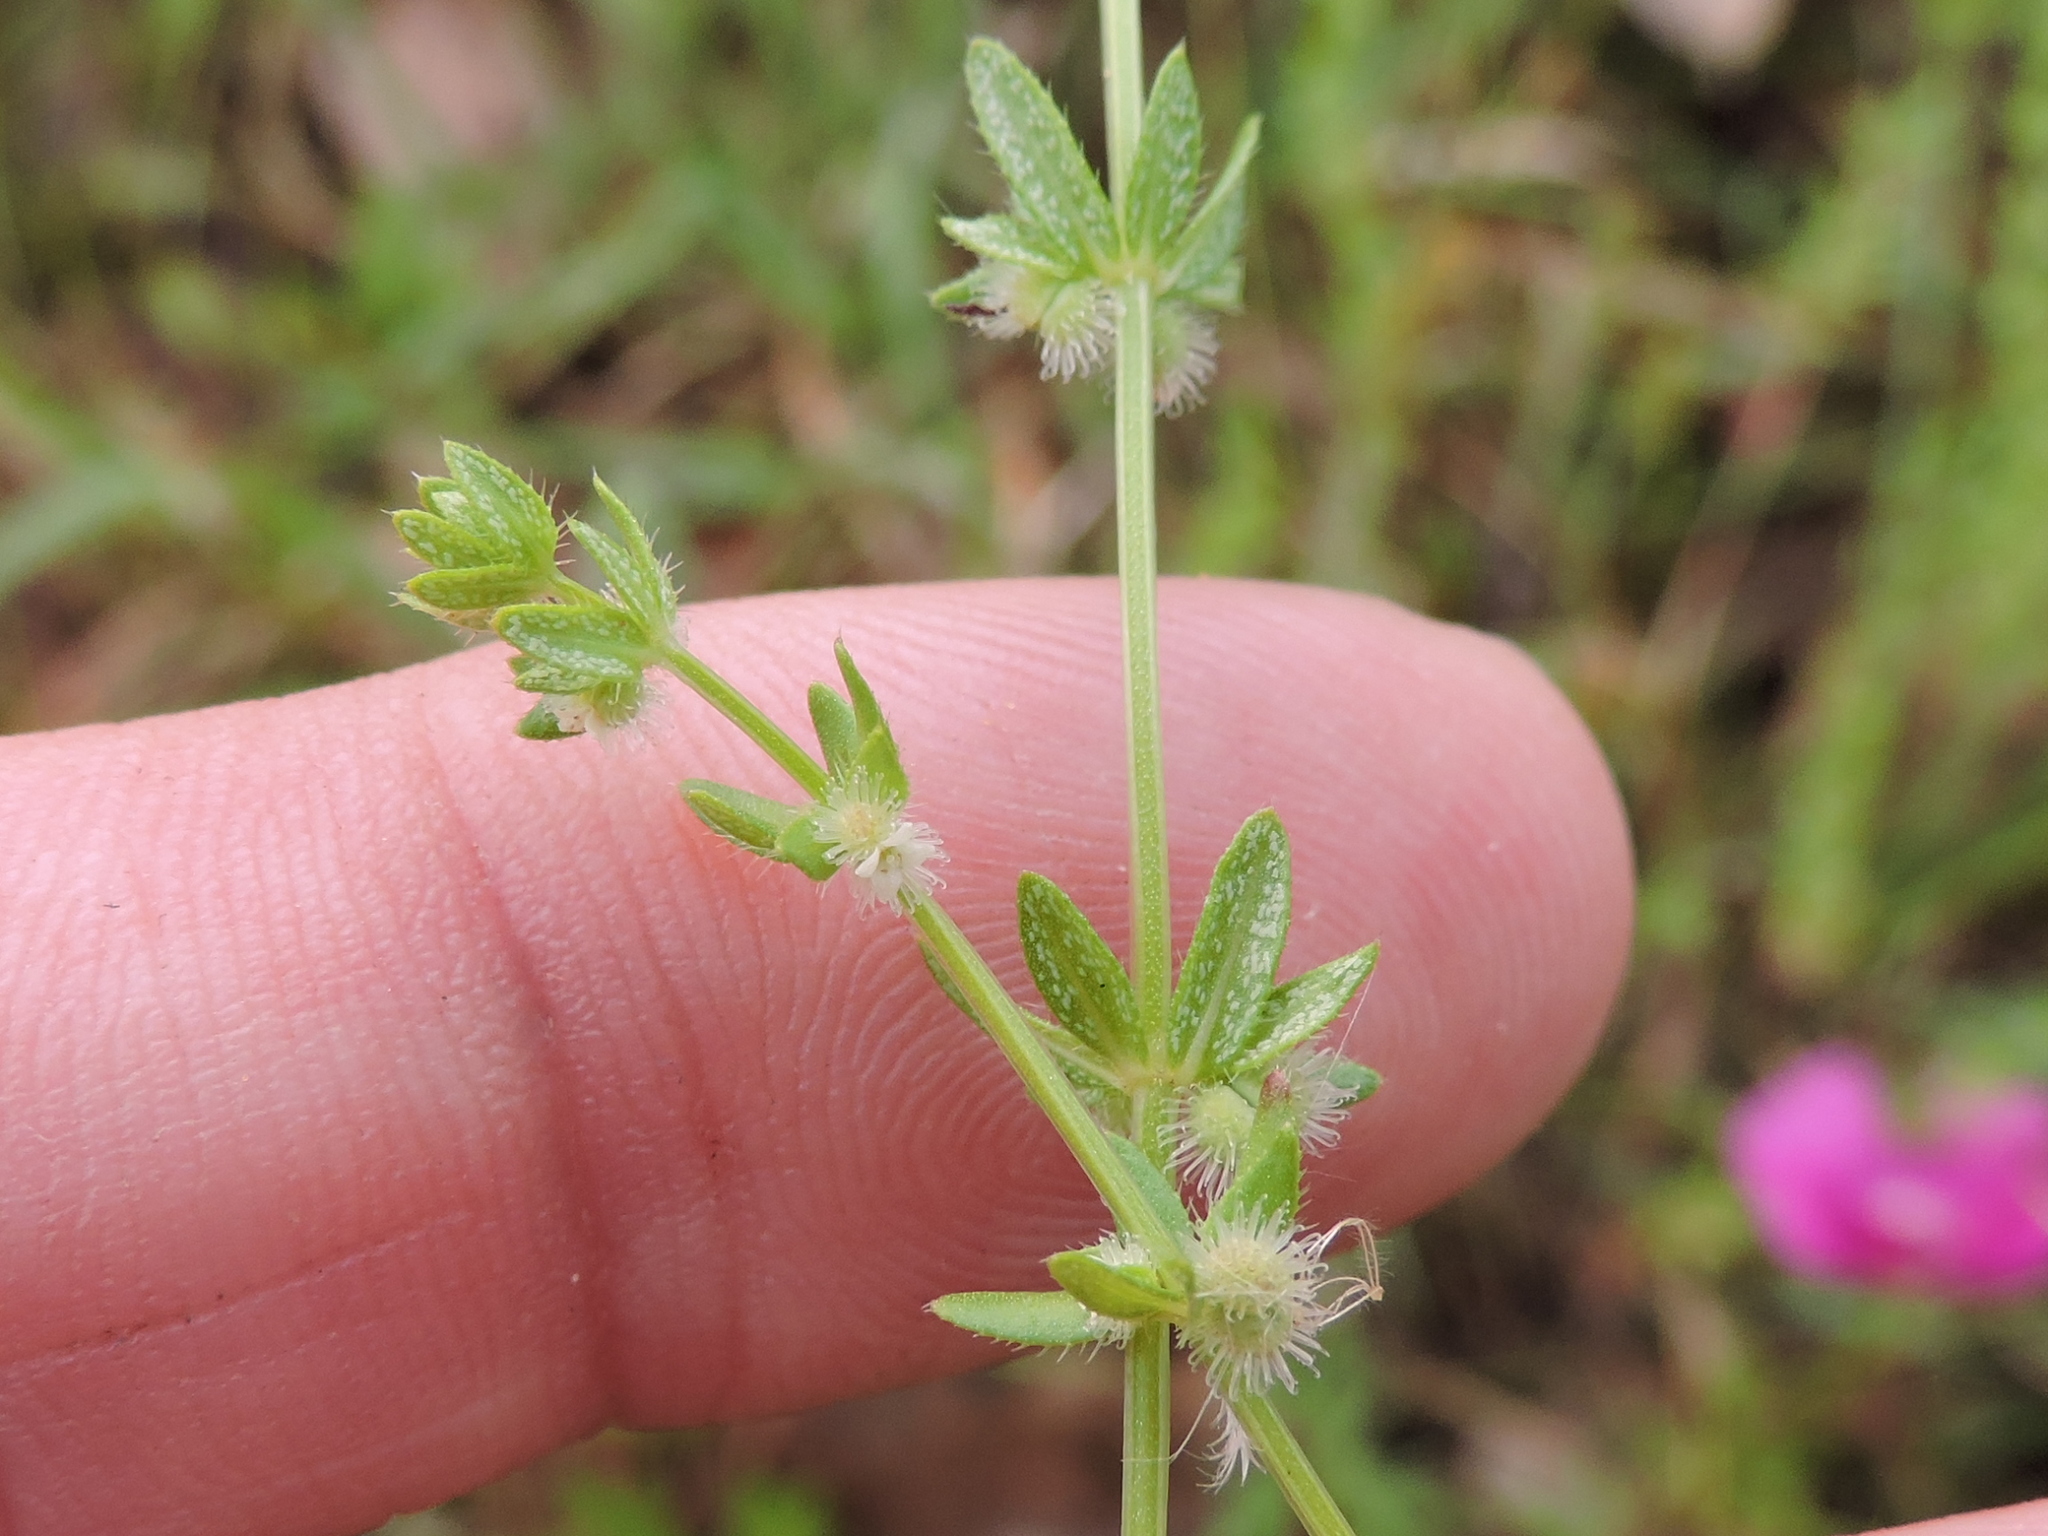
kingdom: Plantae
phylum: Tracheophyta
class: Magnoliopsida
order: Gentianales
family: Rubiaceae
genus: Galium
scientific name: Galium virgatum
